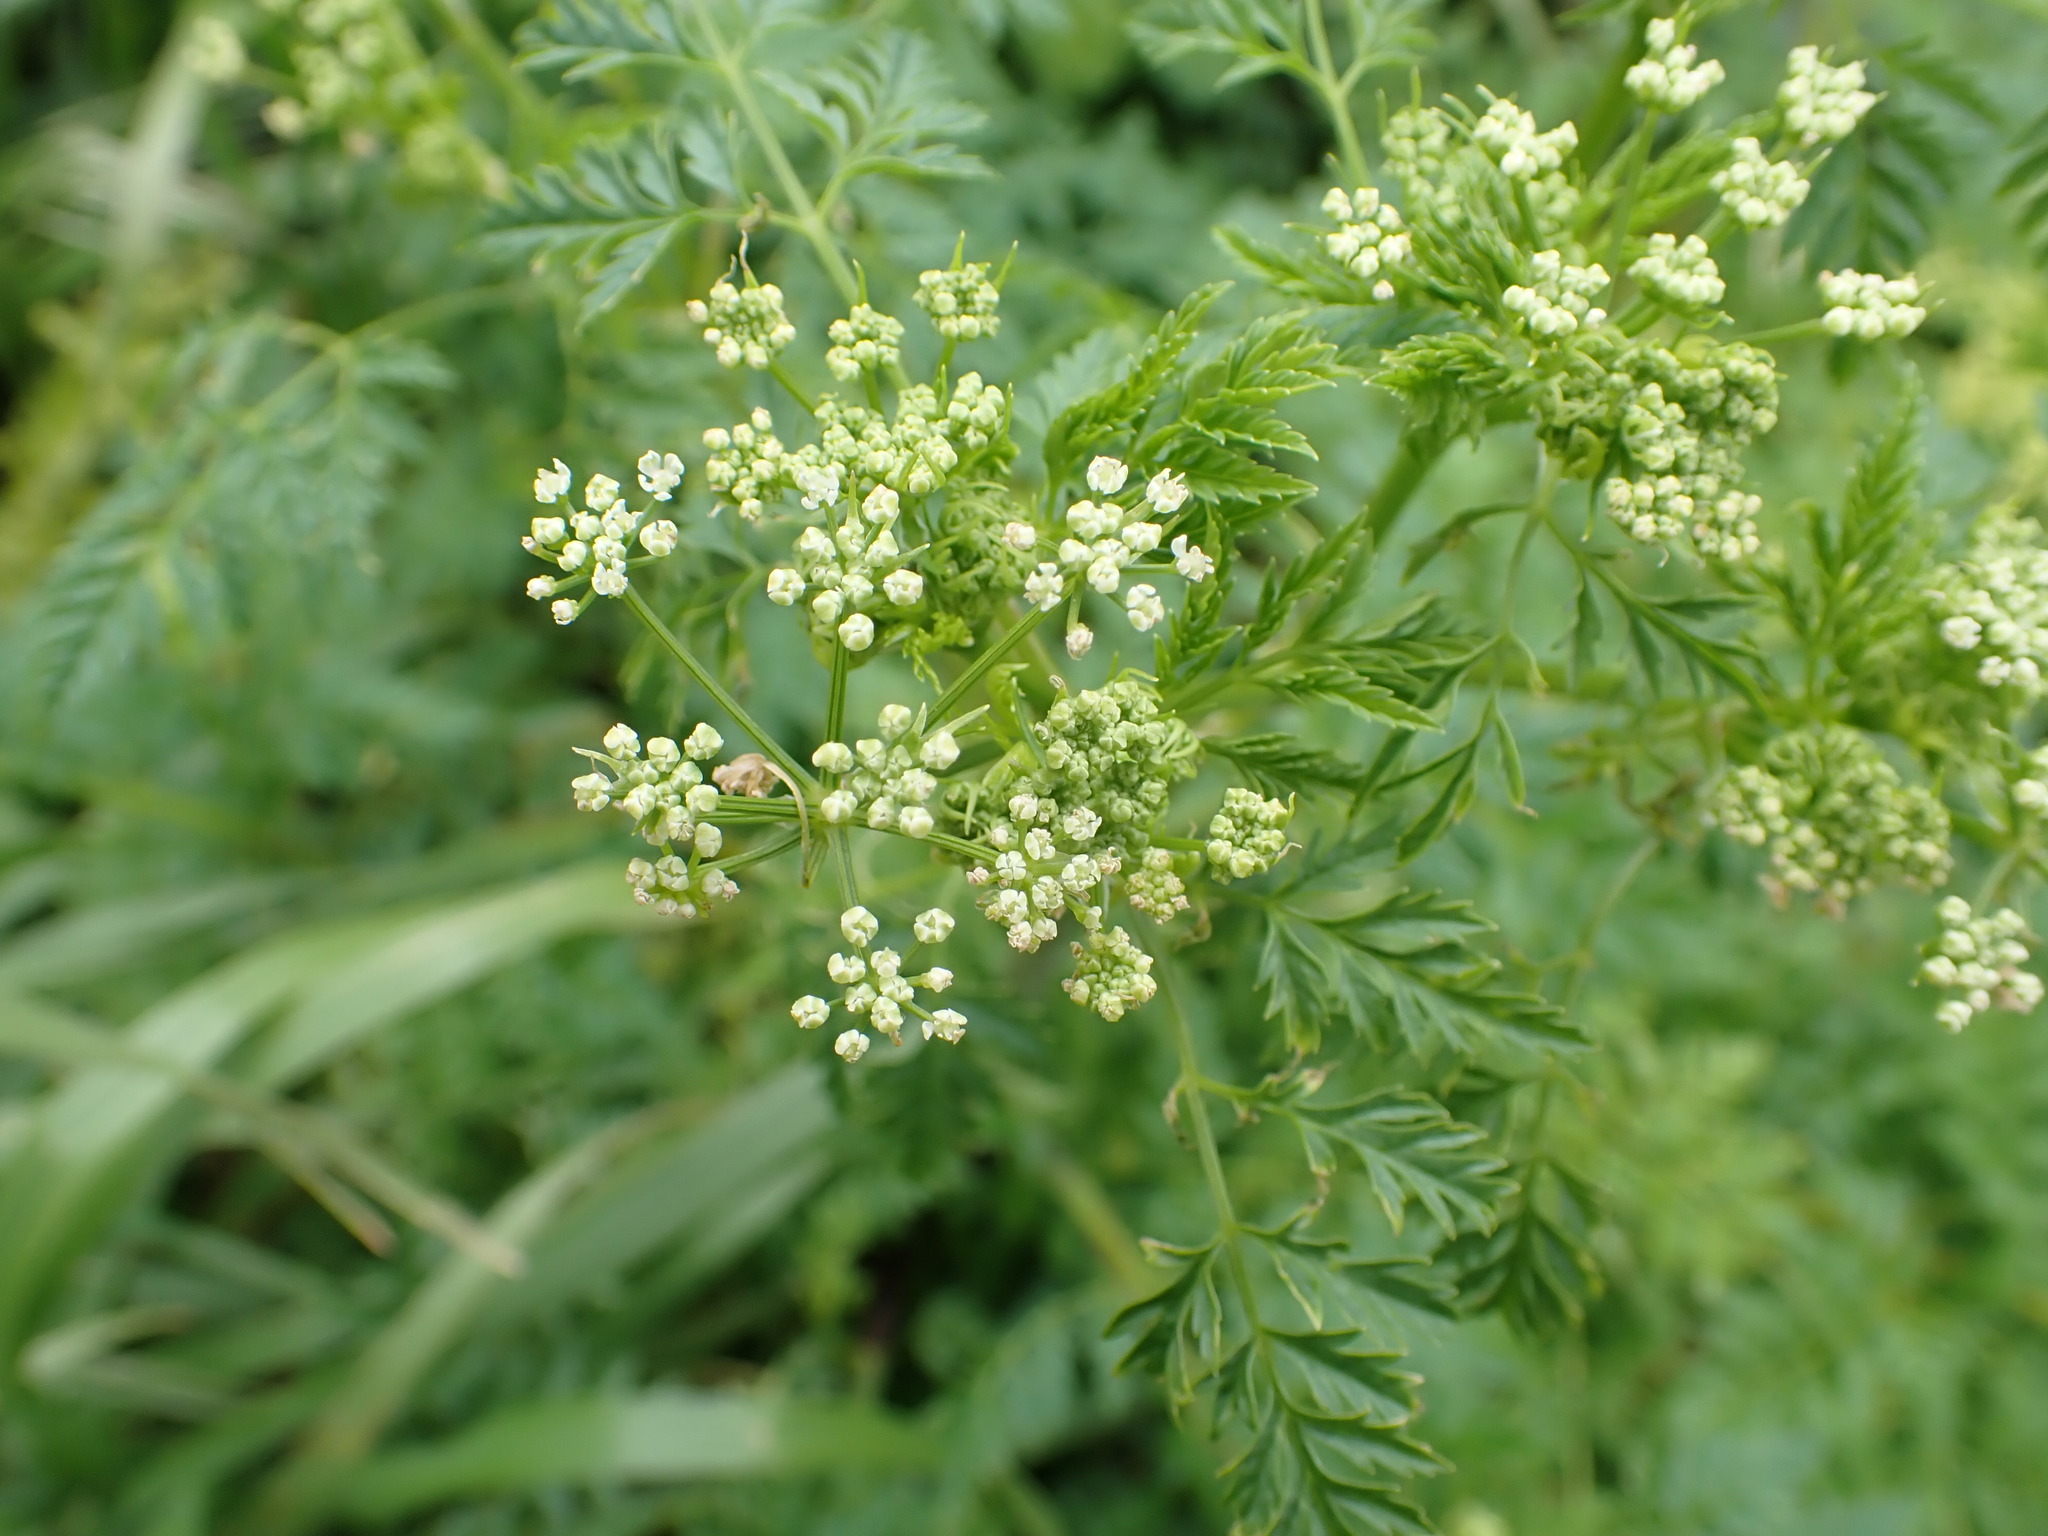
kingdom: Plantae
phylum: Tracheophyta
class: Magnoliopsida
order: Apiales
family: Apiaceae
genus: Conium
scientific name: Conium maculatum
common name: Hemlock
